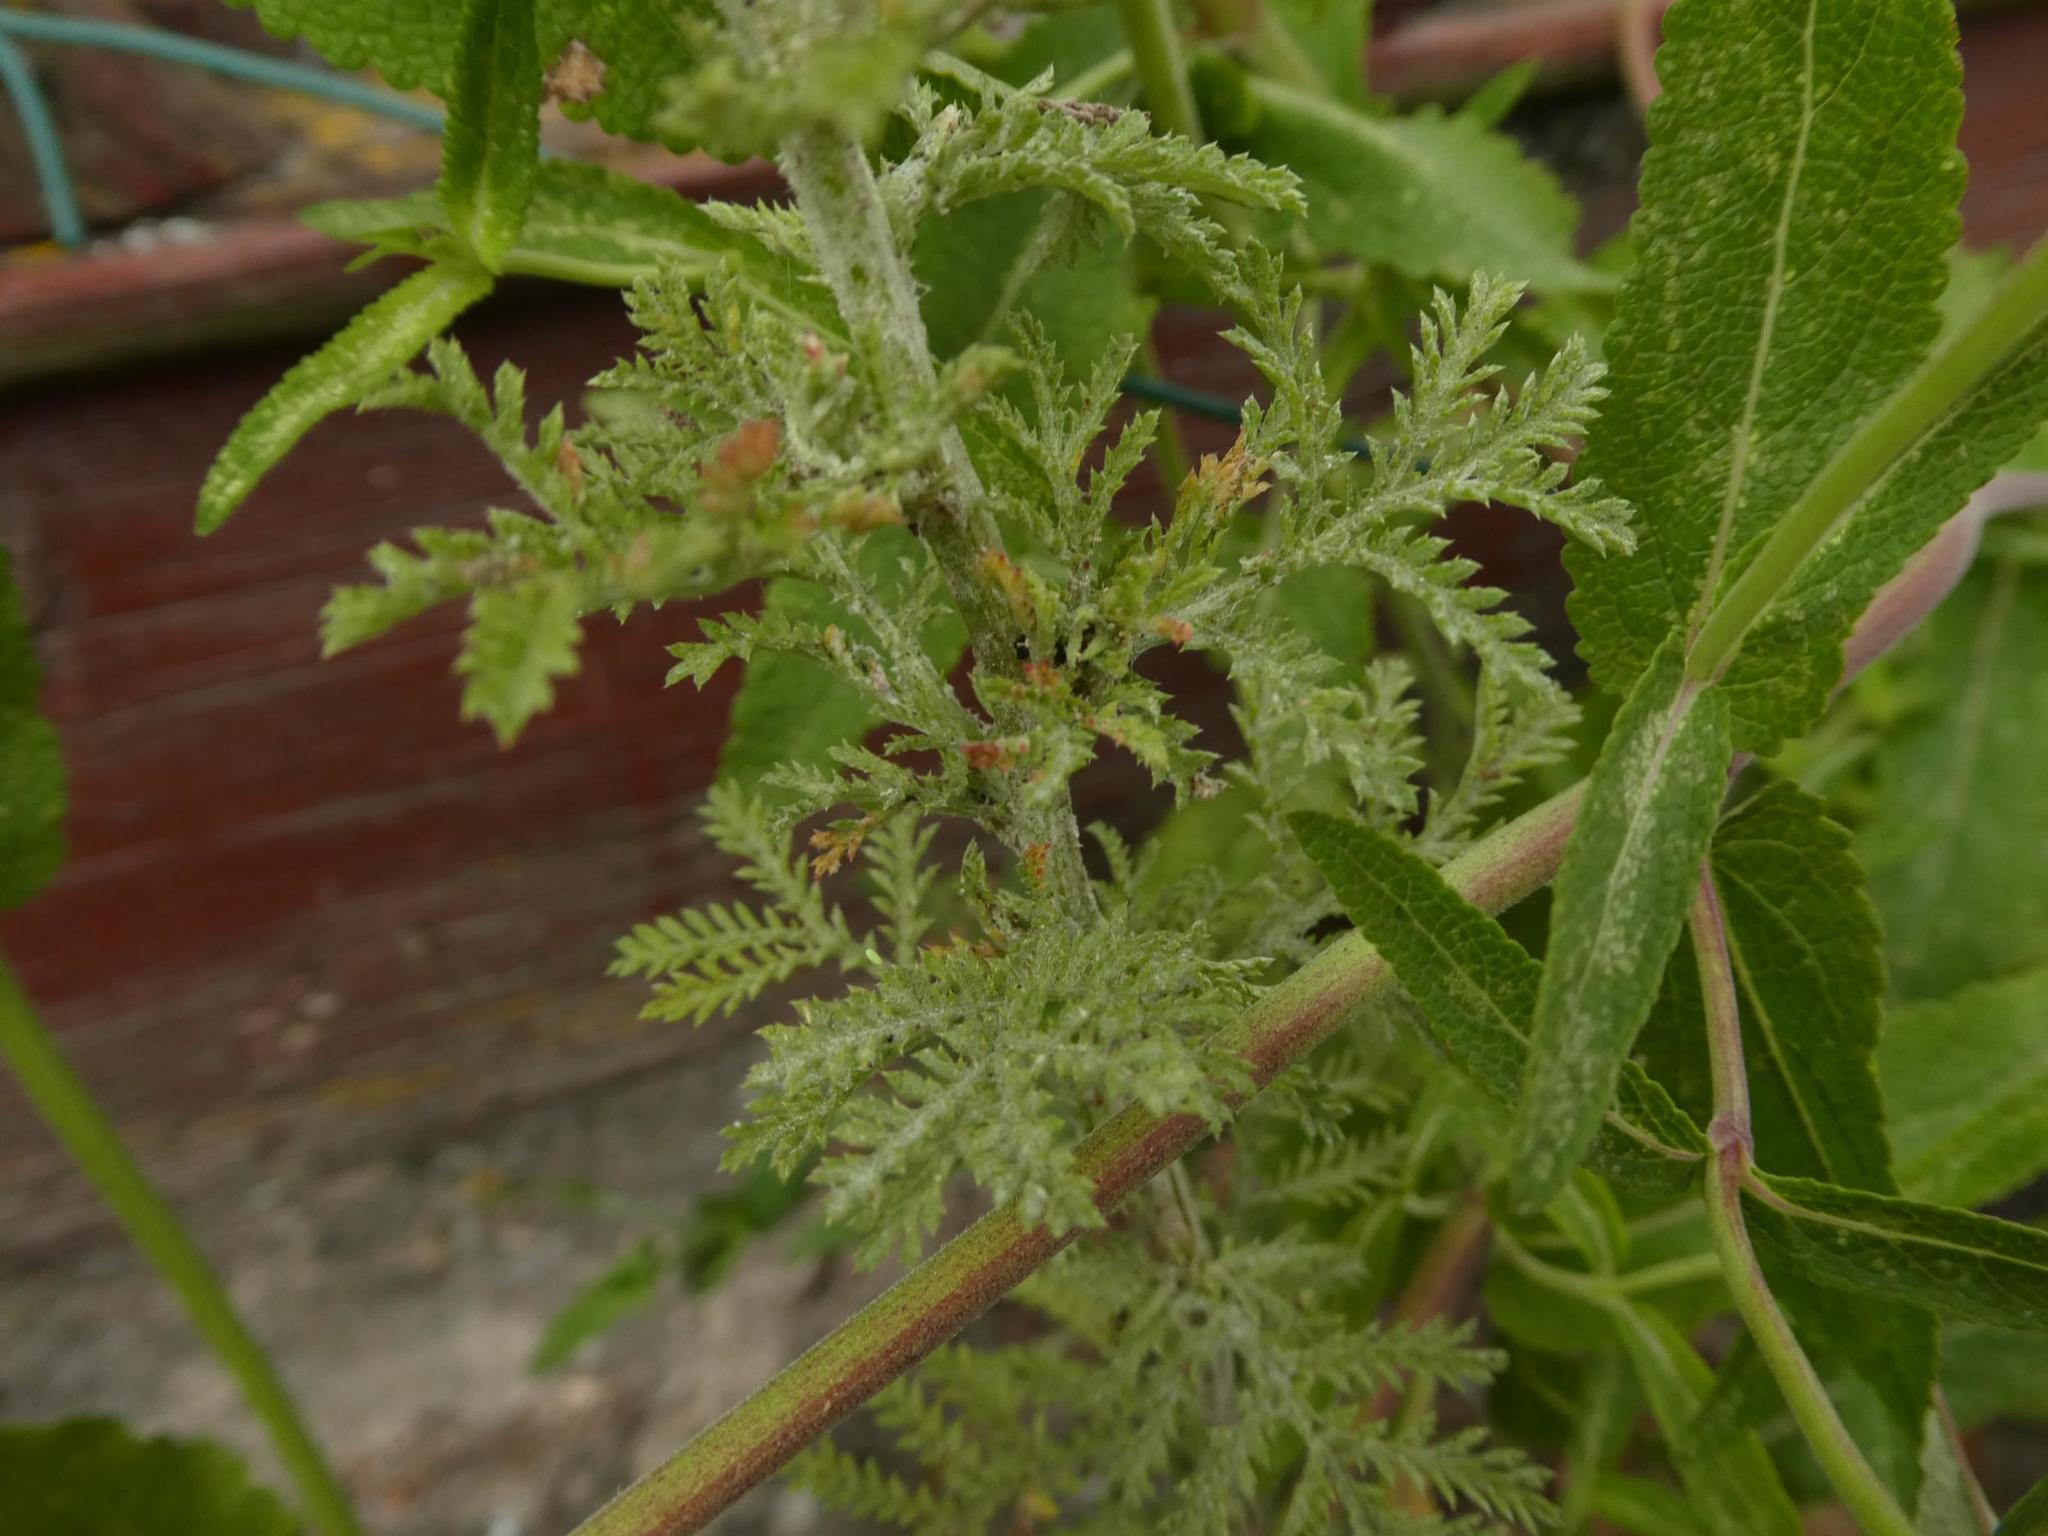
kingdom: Plantae
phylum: Tracheophyta
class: Magnoliopsida
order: Asterales
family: Asteraceae
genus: Cota
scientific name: Cota tinctoria
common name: Golden chamomile
